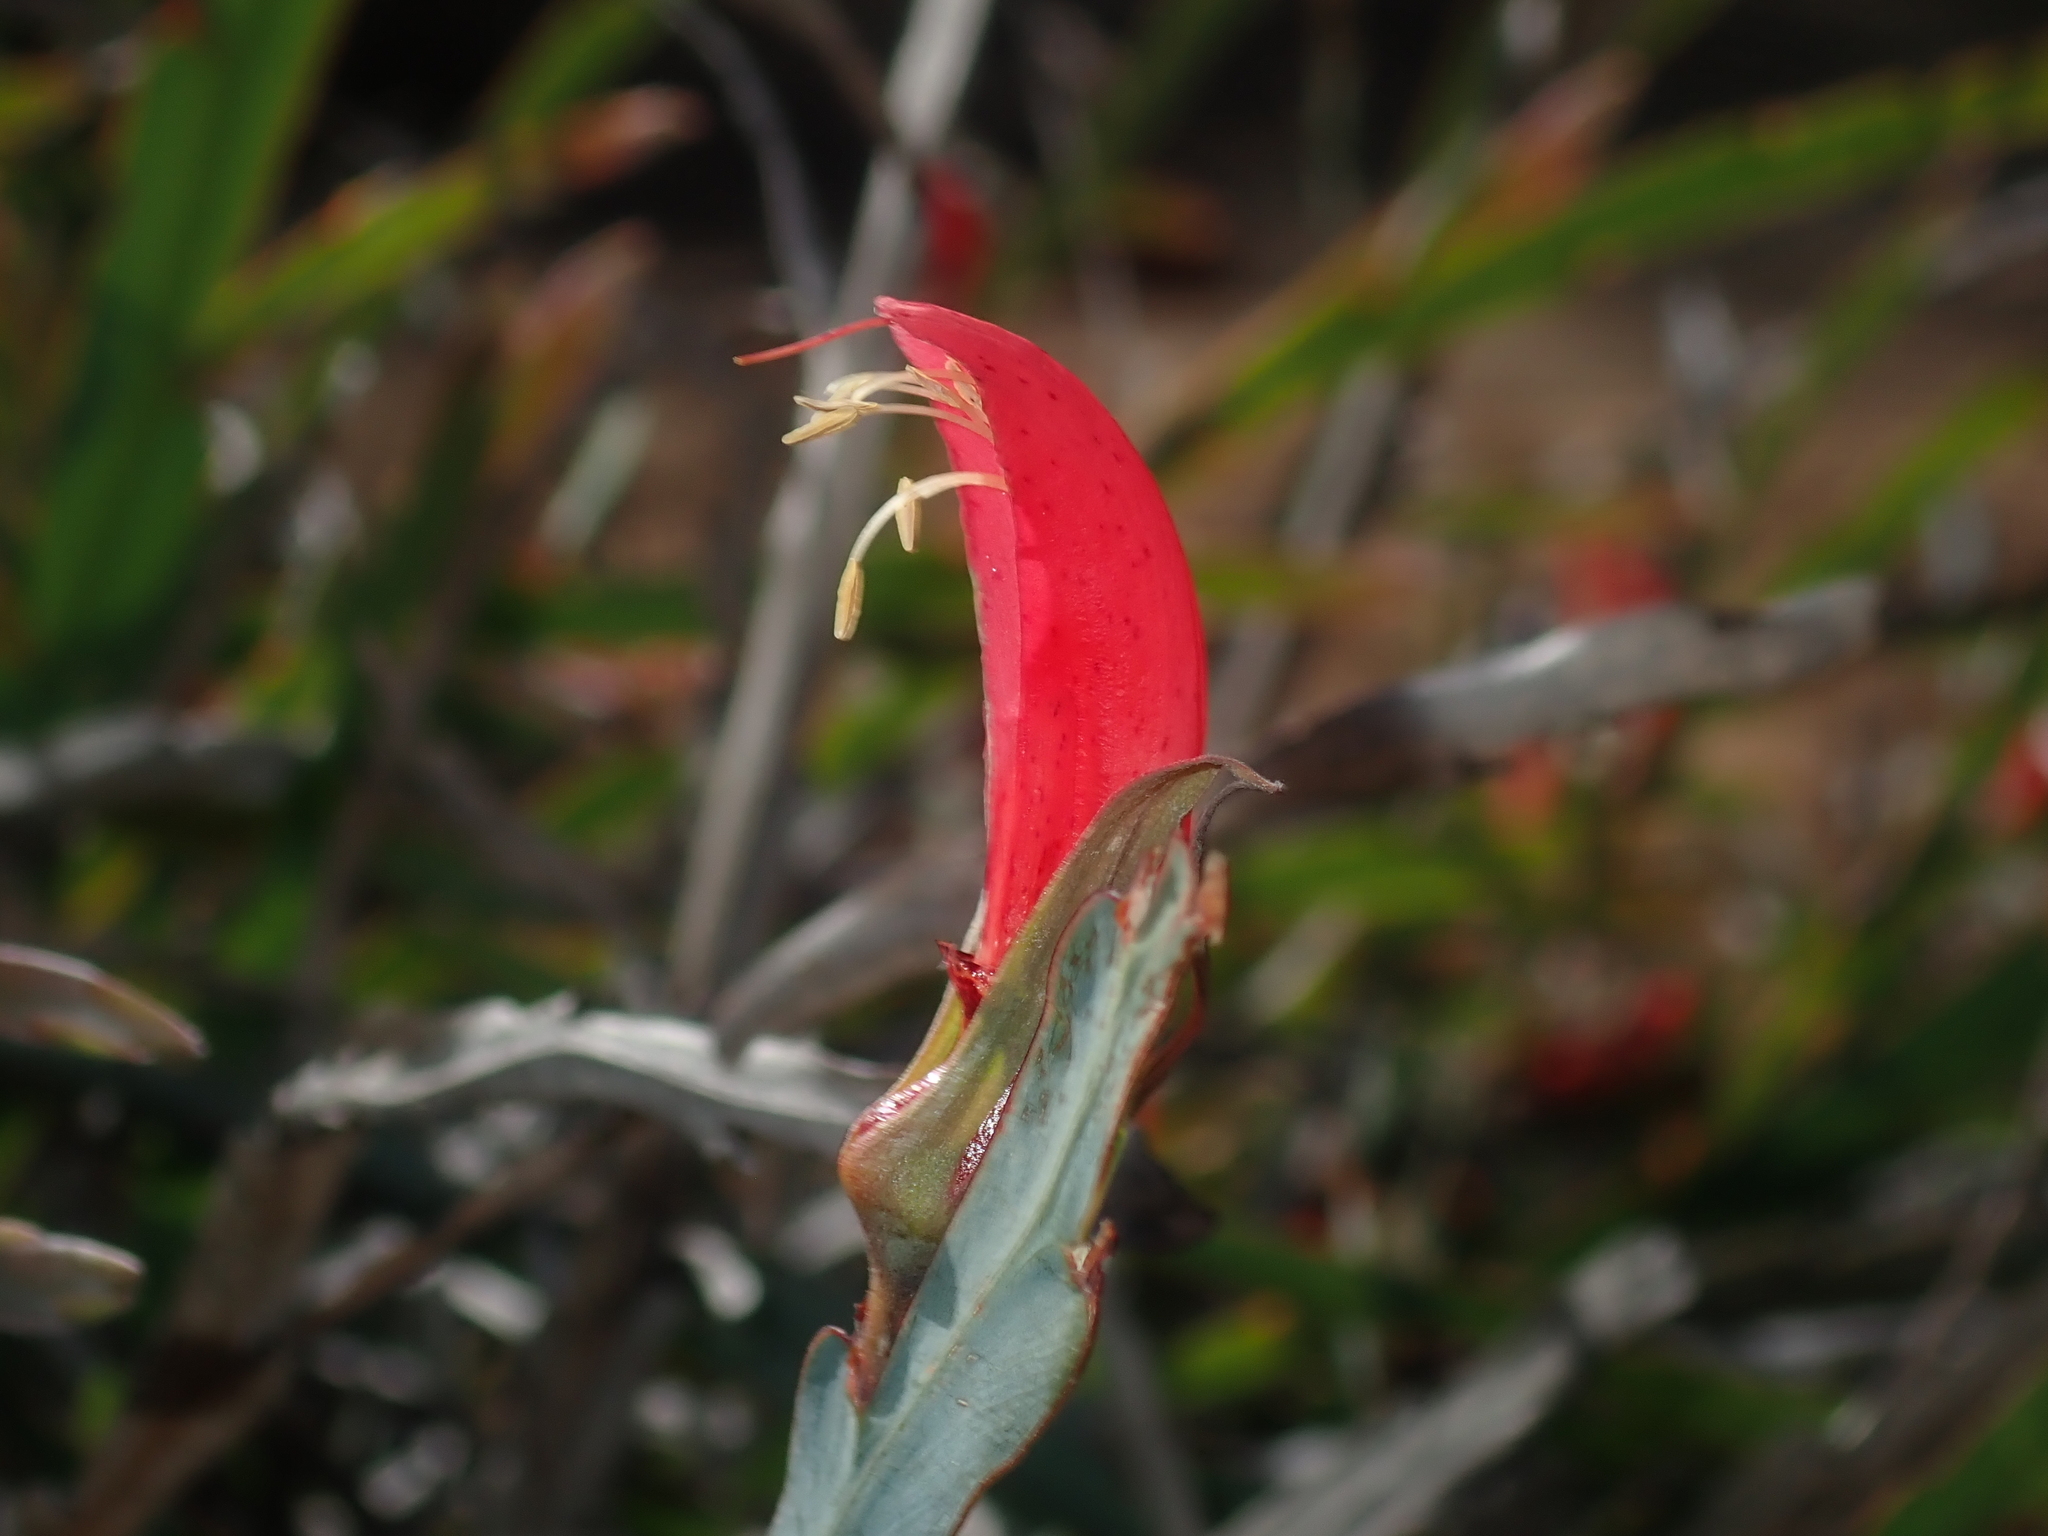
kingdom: Plantae
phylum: Tracheophyta
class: Magnoliopsida
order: Fabales
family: Fabaceae
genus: Leptosema
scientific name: Leptosema aphyllum
